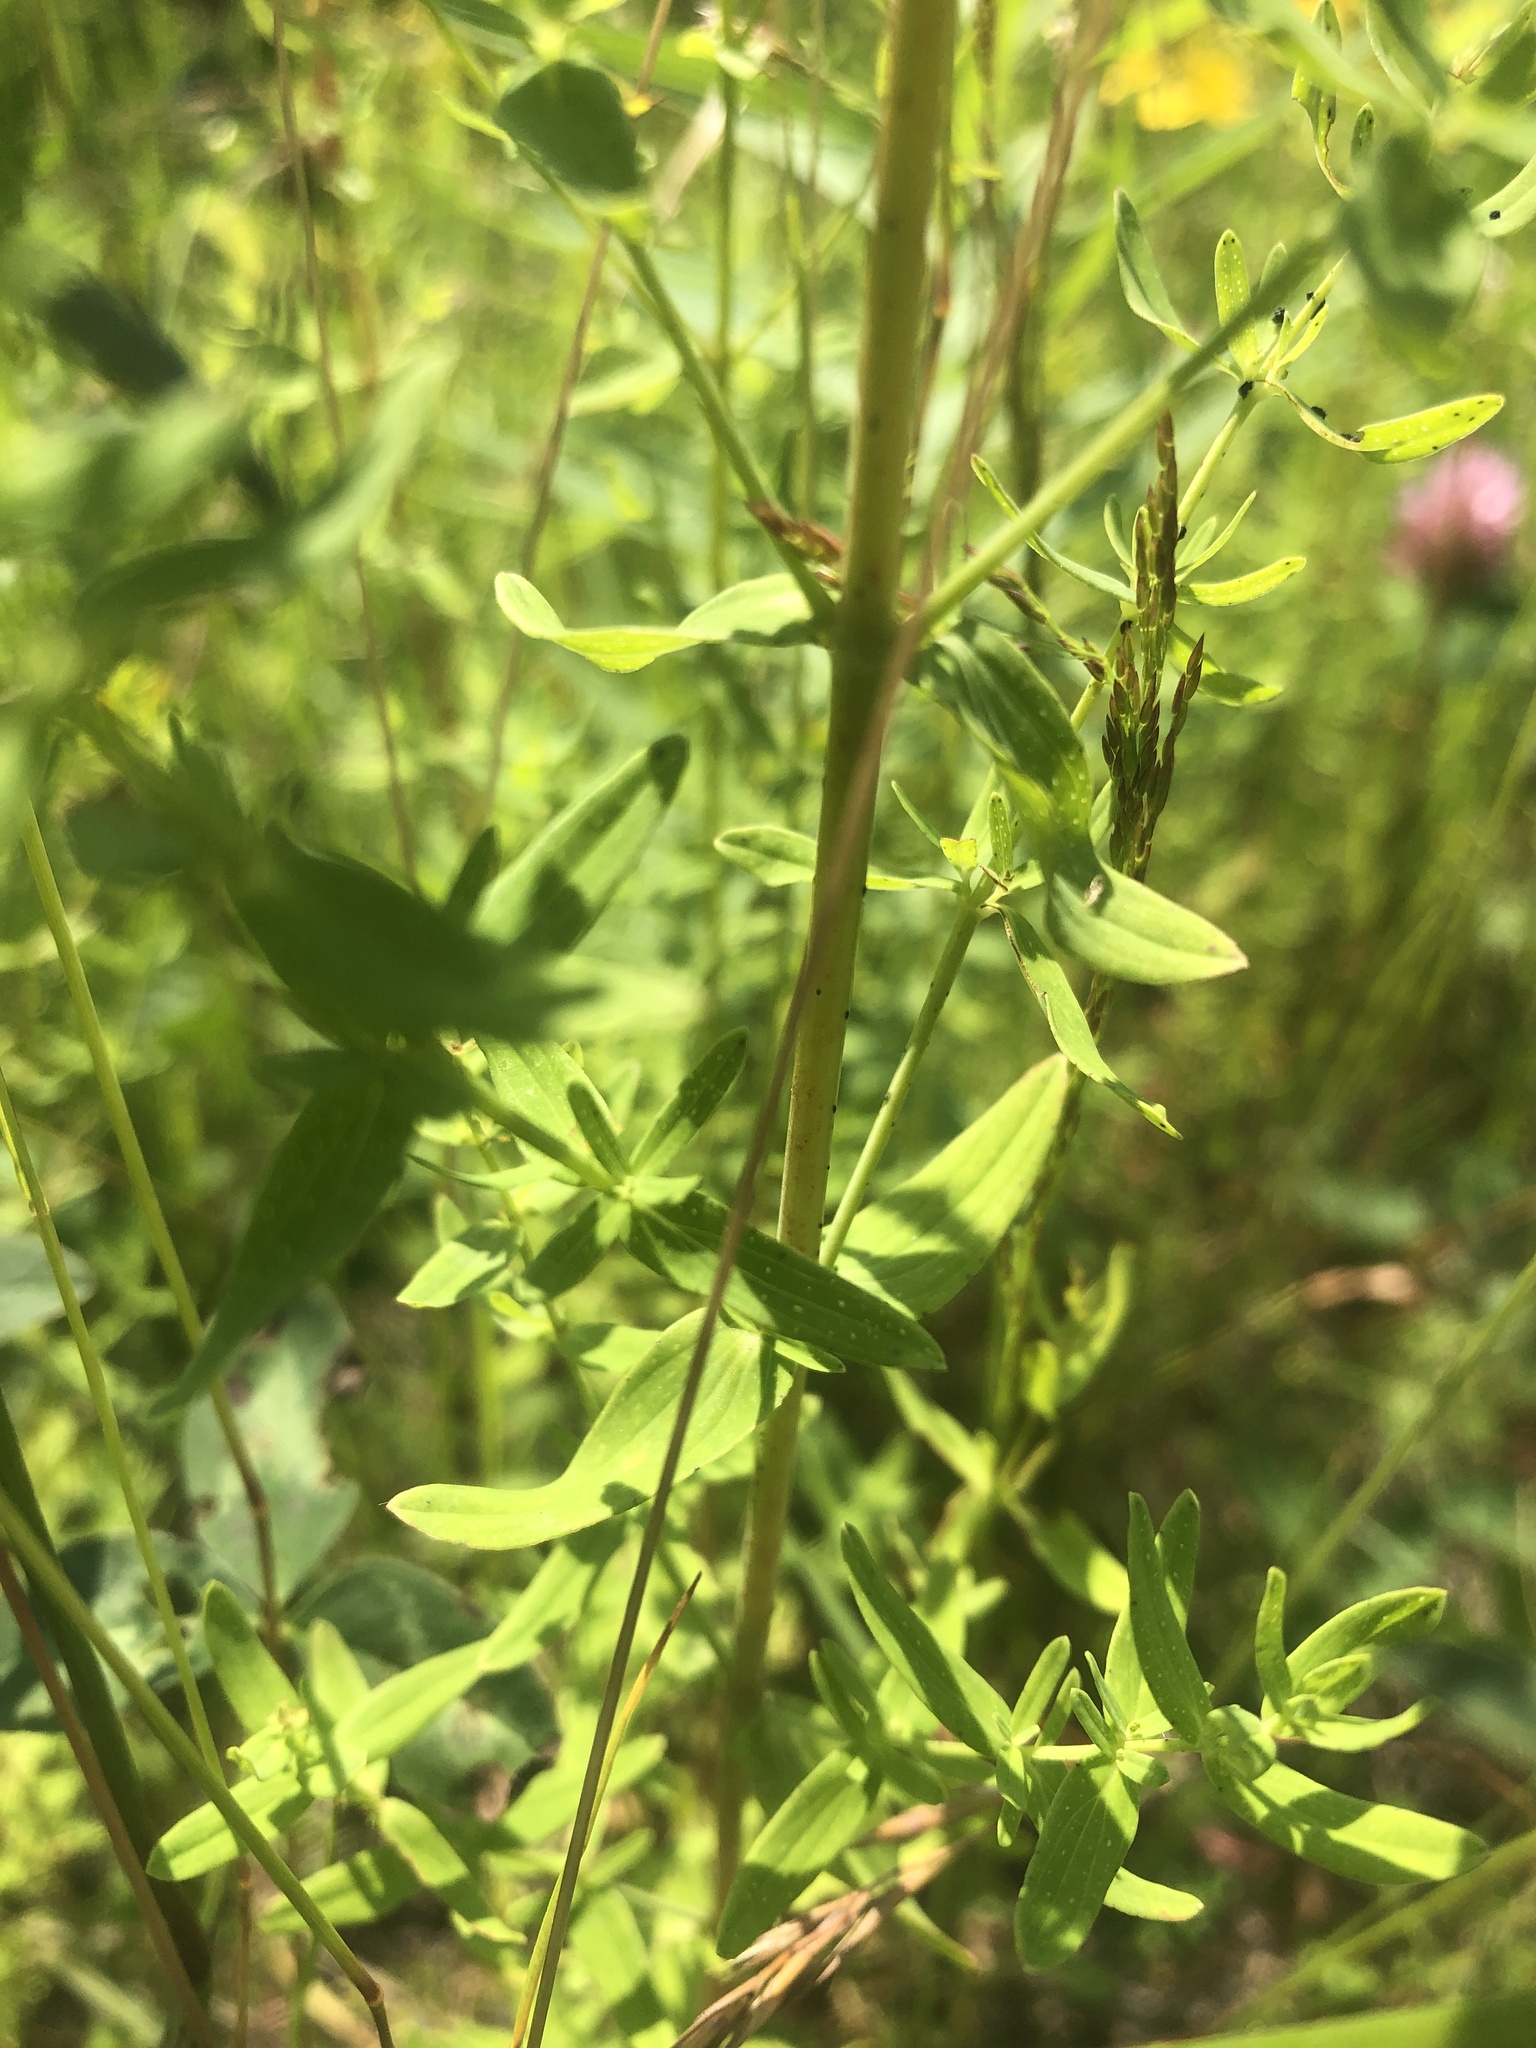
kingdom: Plantae
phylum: Tracheophyta
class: Magnoliopsida
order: Malpighiales
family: Hypericaceae
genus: Hypericum
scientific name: Hypericum perforatum
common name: Common st. johnswort
